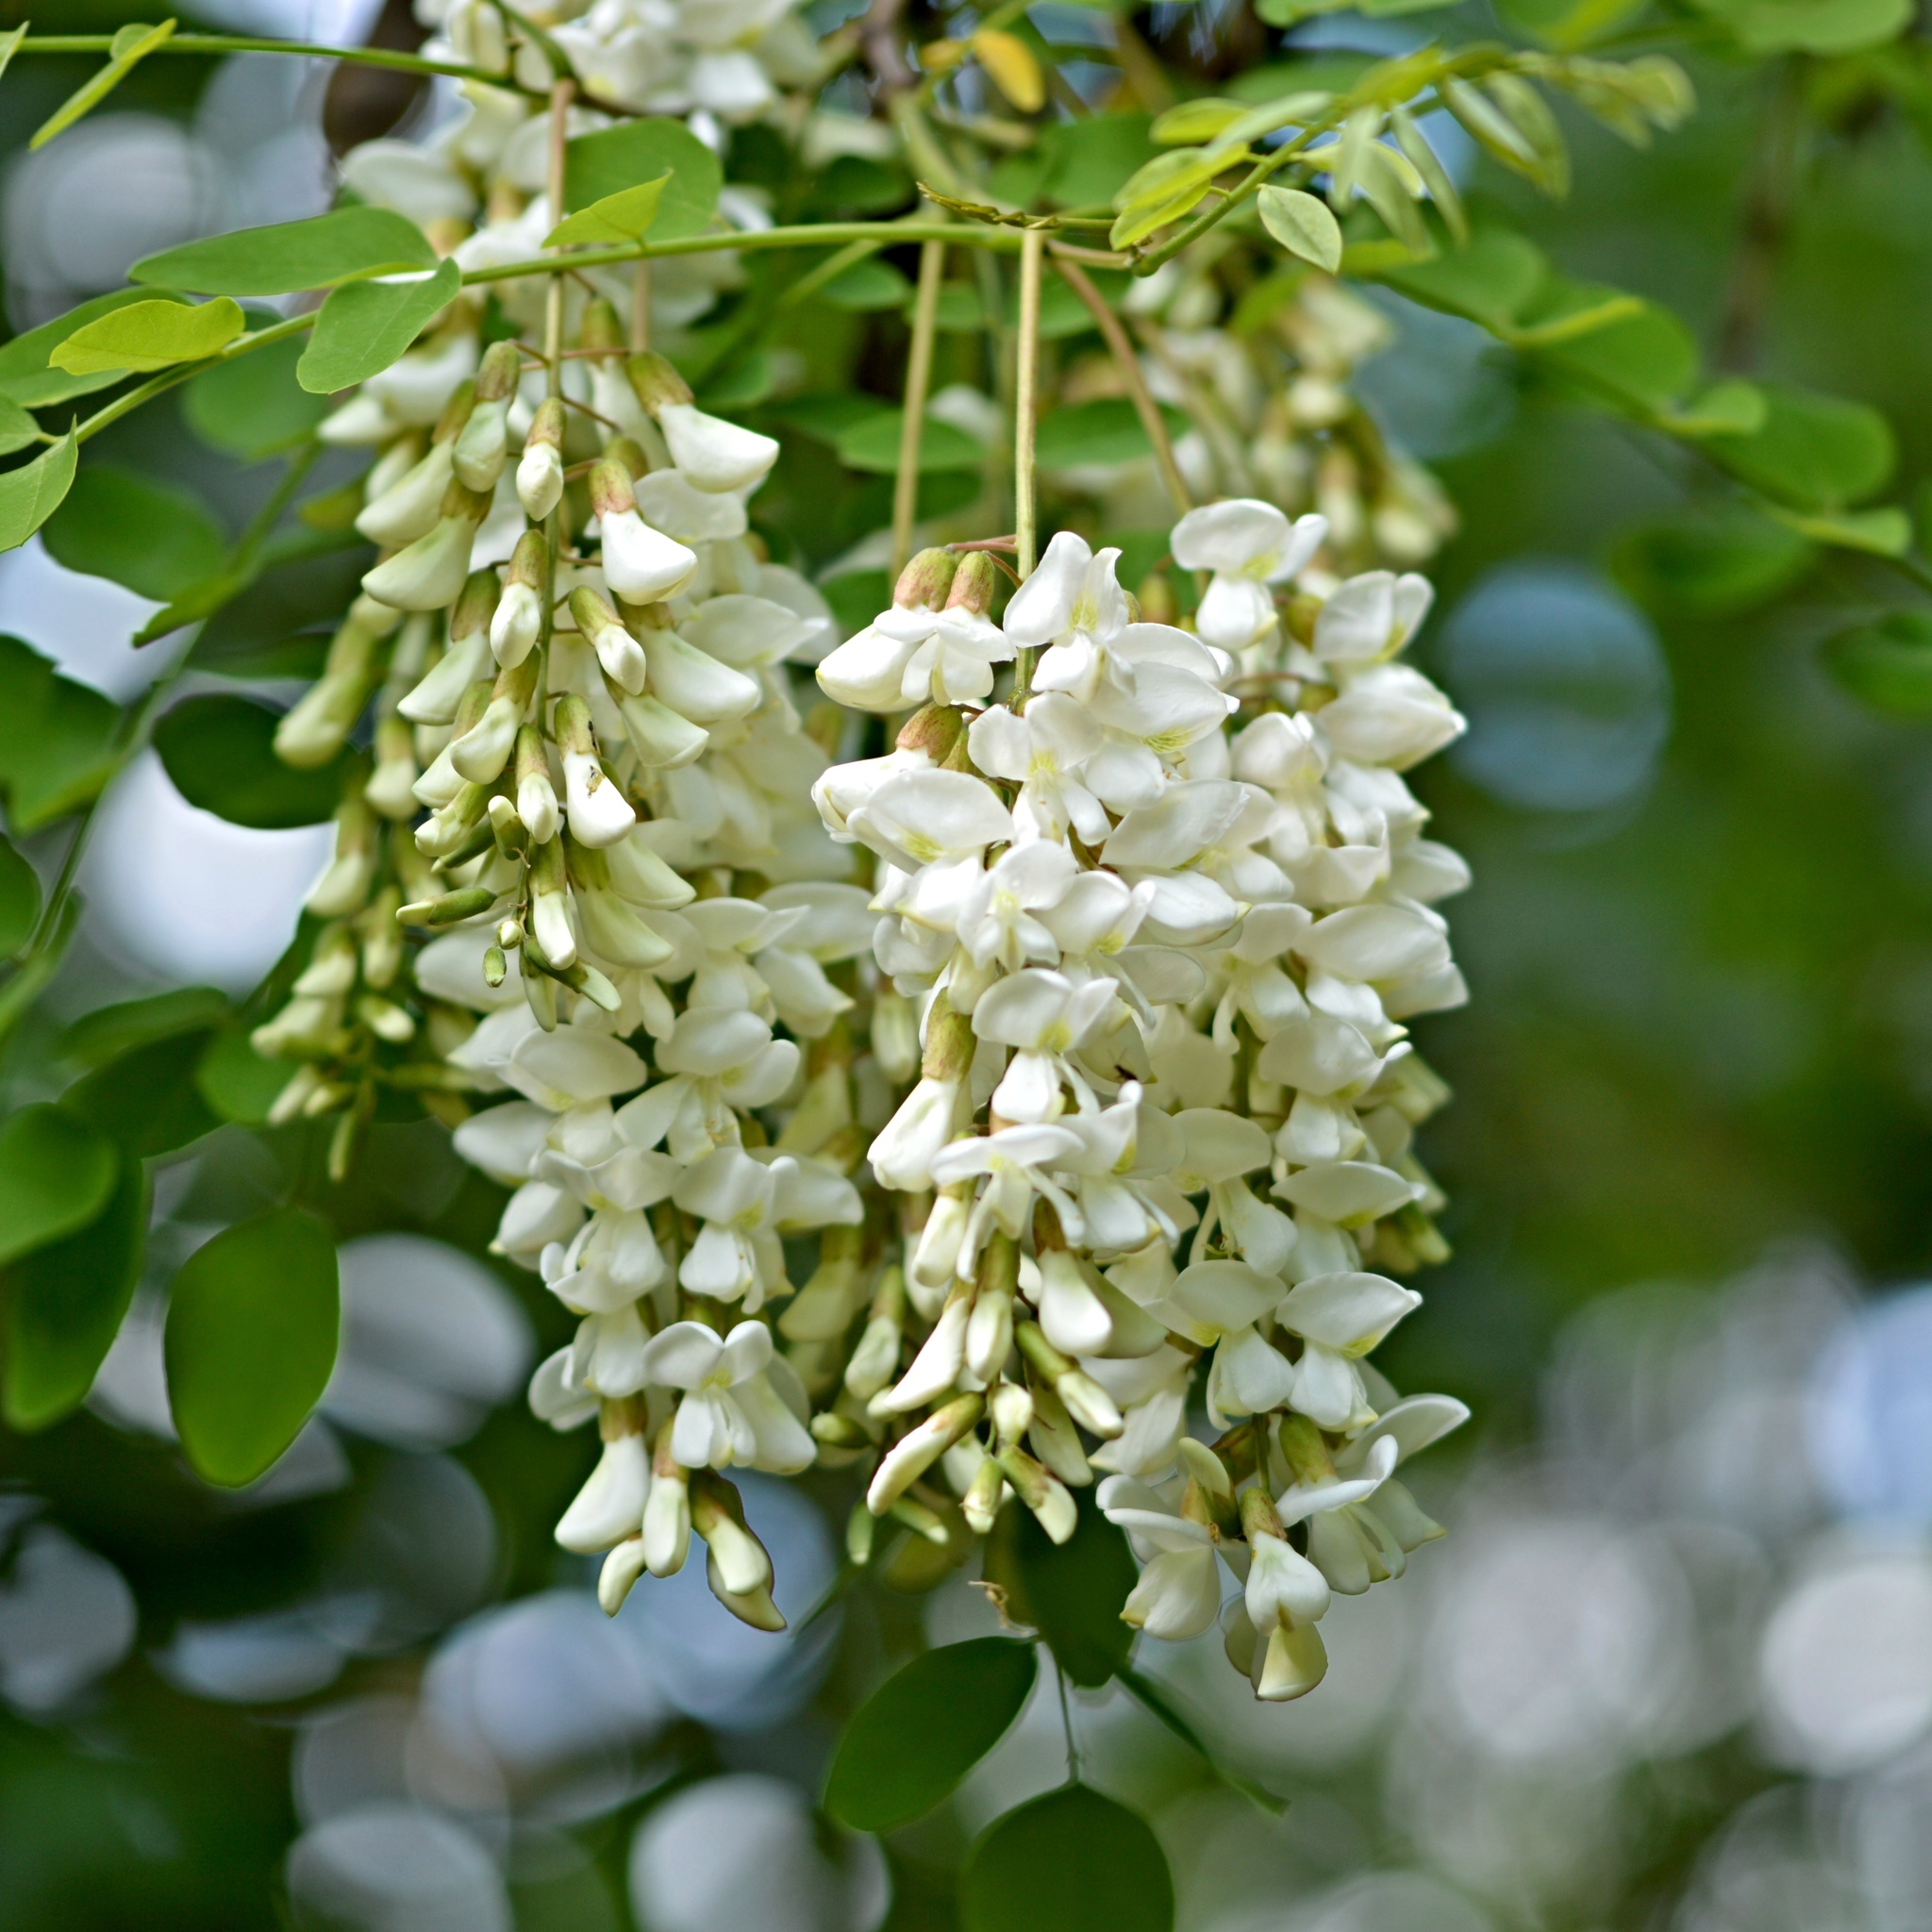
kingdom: Plantae
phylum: Tracheophyta
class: Magnoliopsida
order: Fabales
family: Fabaceae
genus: Robinia
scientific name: Robinia pseudoacacia
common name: Black locust
